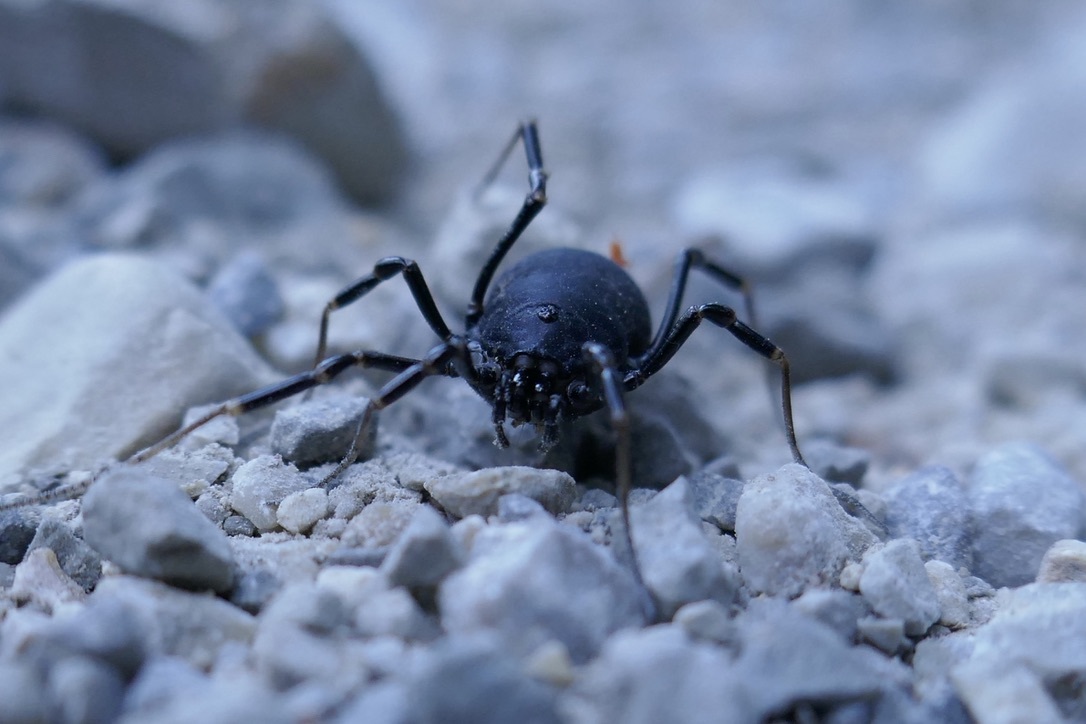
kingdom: Animalia
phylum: Arthropoda
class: Arachnida
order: Opiliones
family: Phalangiidae
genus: Egaenus
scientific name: Egaenus convexus
